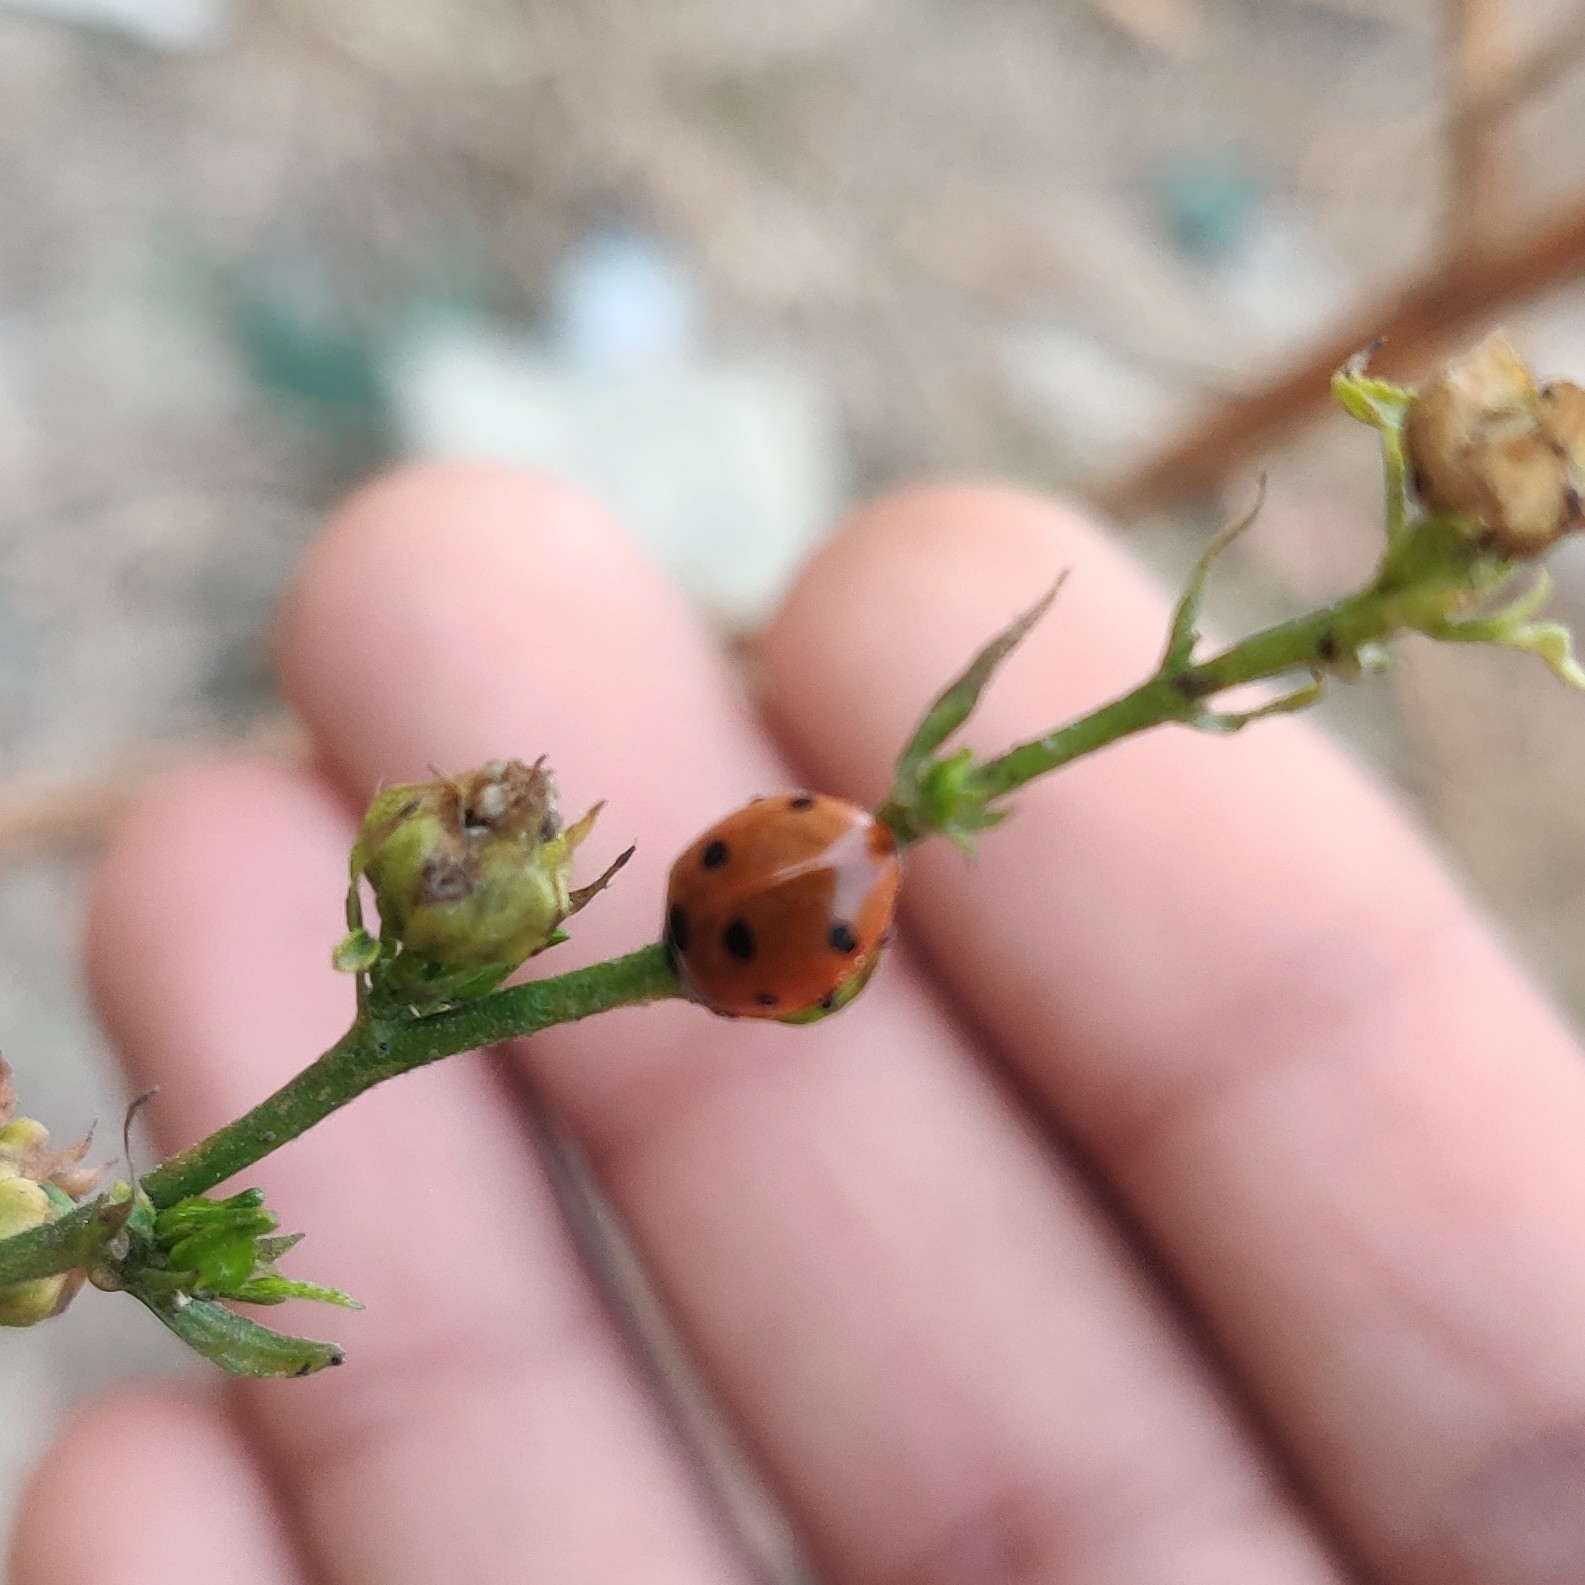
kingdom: Animalia
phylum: Arthropoda
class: Insecta
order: Coleoptera
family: Coccinellidae
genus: Coccinella
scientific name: Coccinella septempunctata
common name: Sevenspotted lady beetle
